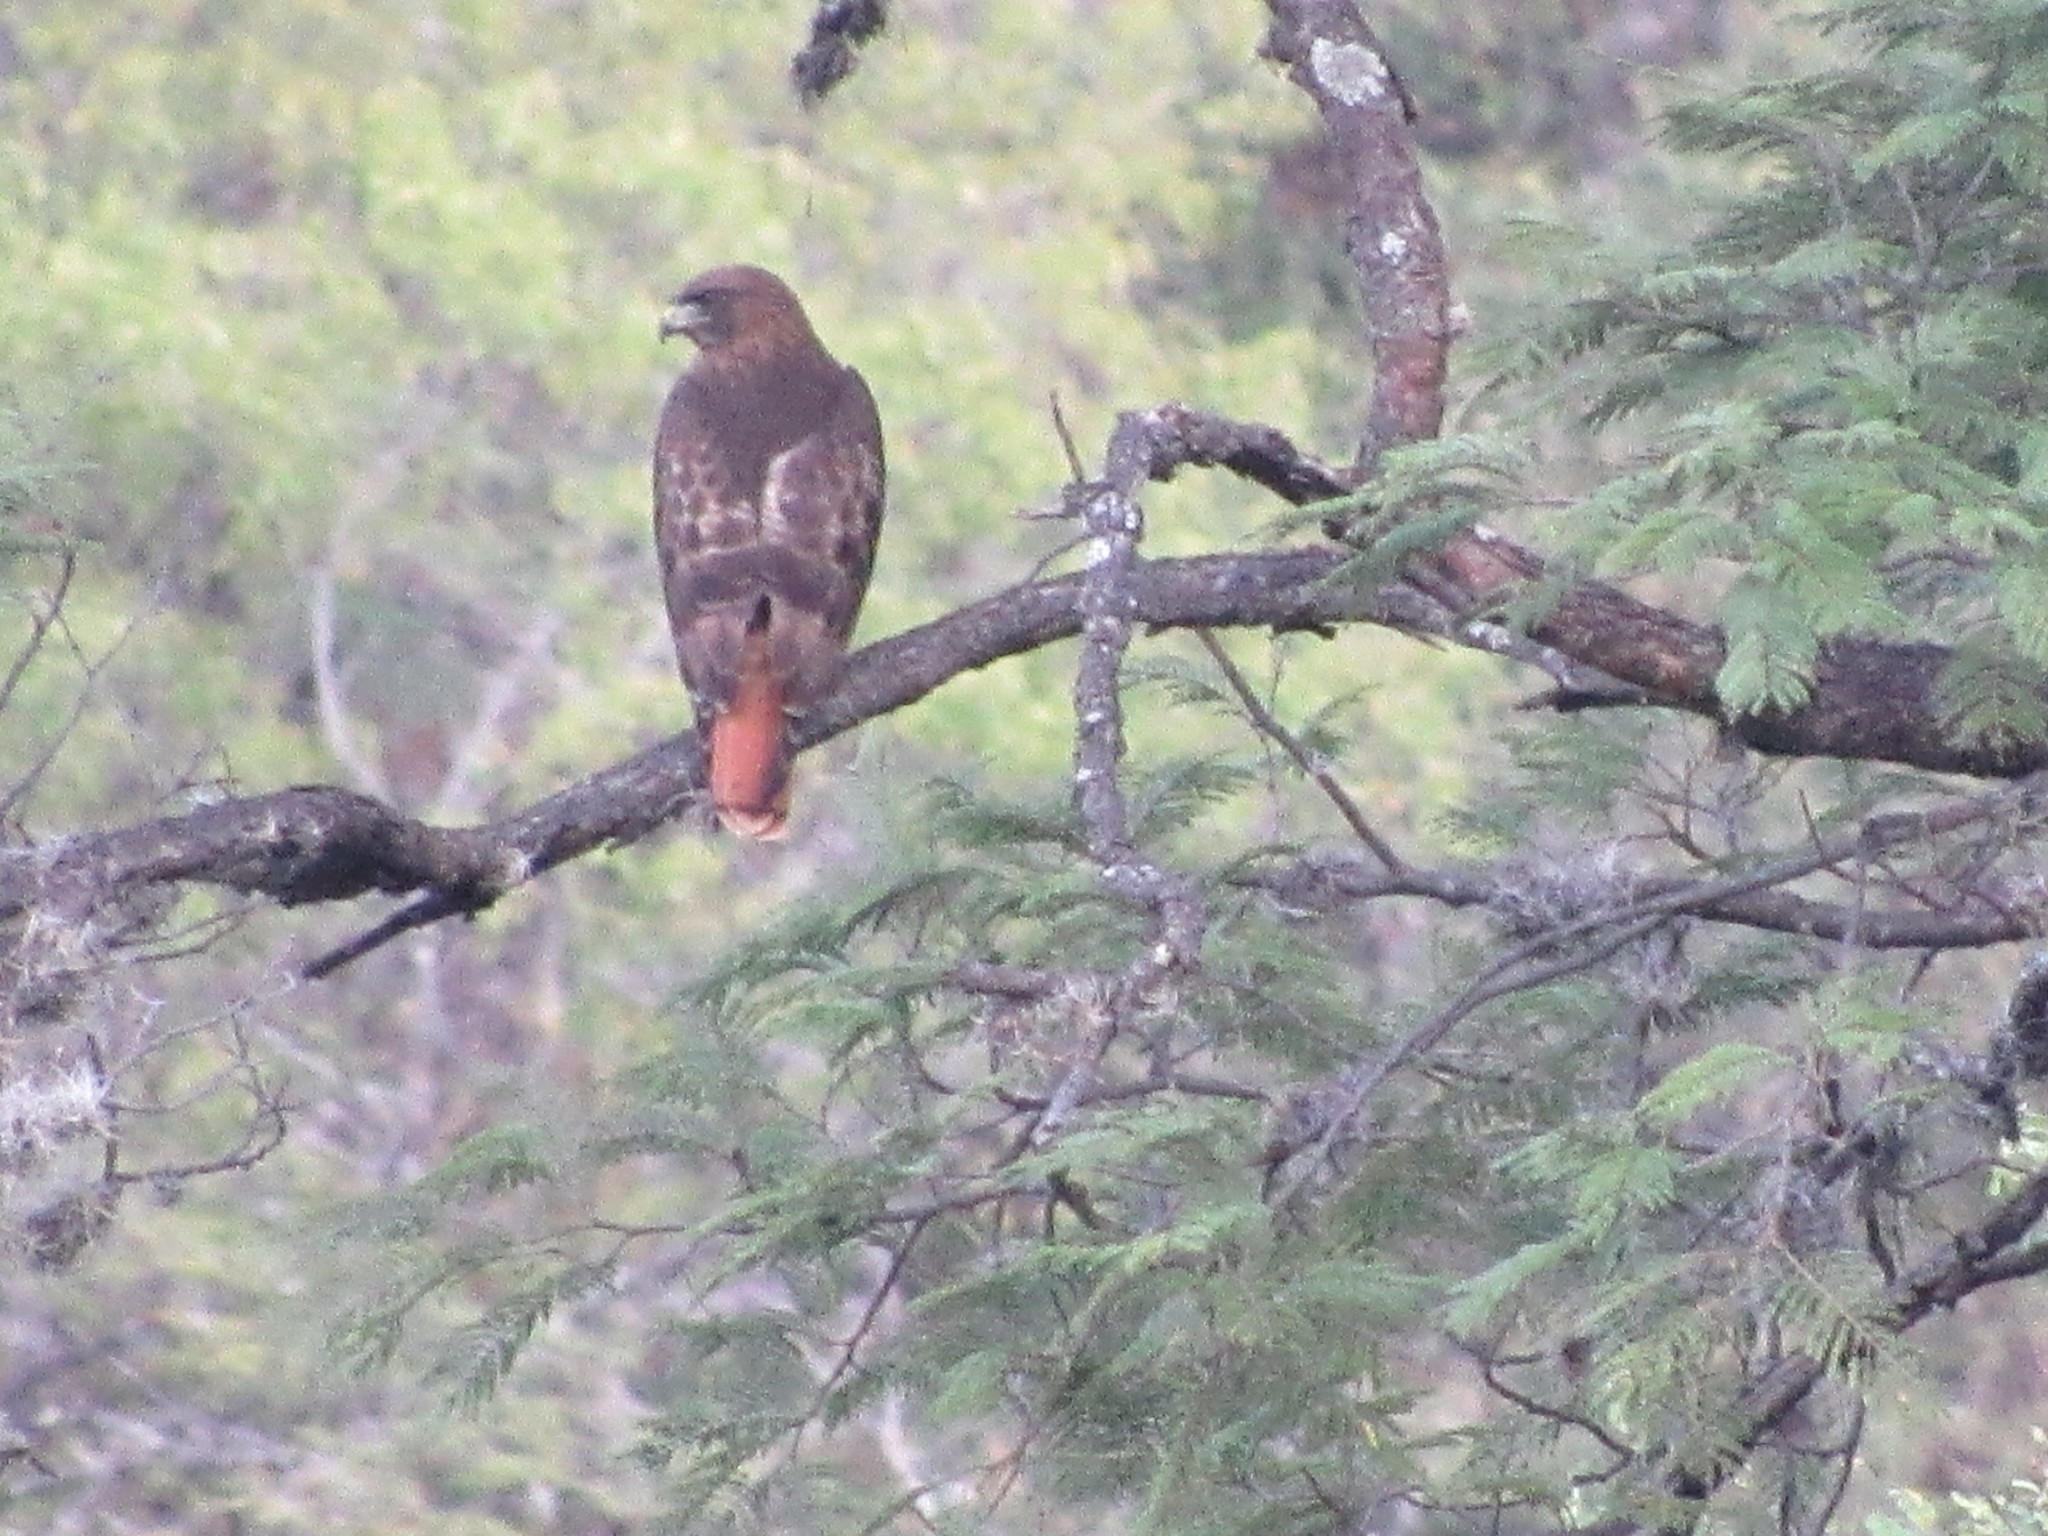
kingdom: Animalia
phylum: Chordata
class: Aves
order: Accipitriformes
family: Accipitridae
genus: Buteo
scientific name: Buteo jamaicensis
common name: Red-tailed hawk
